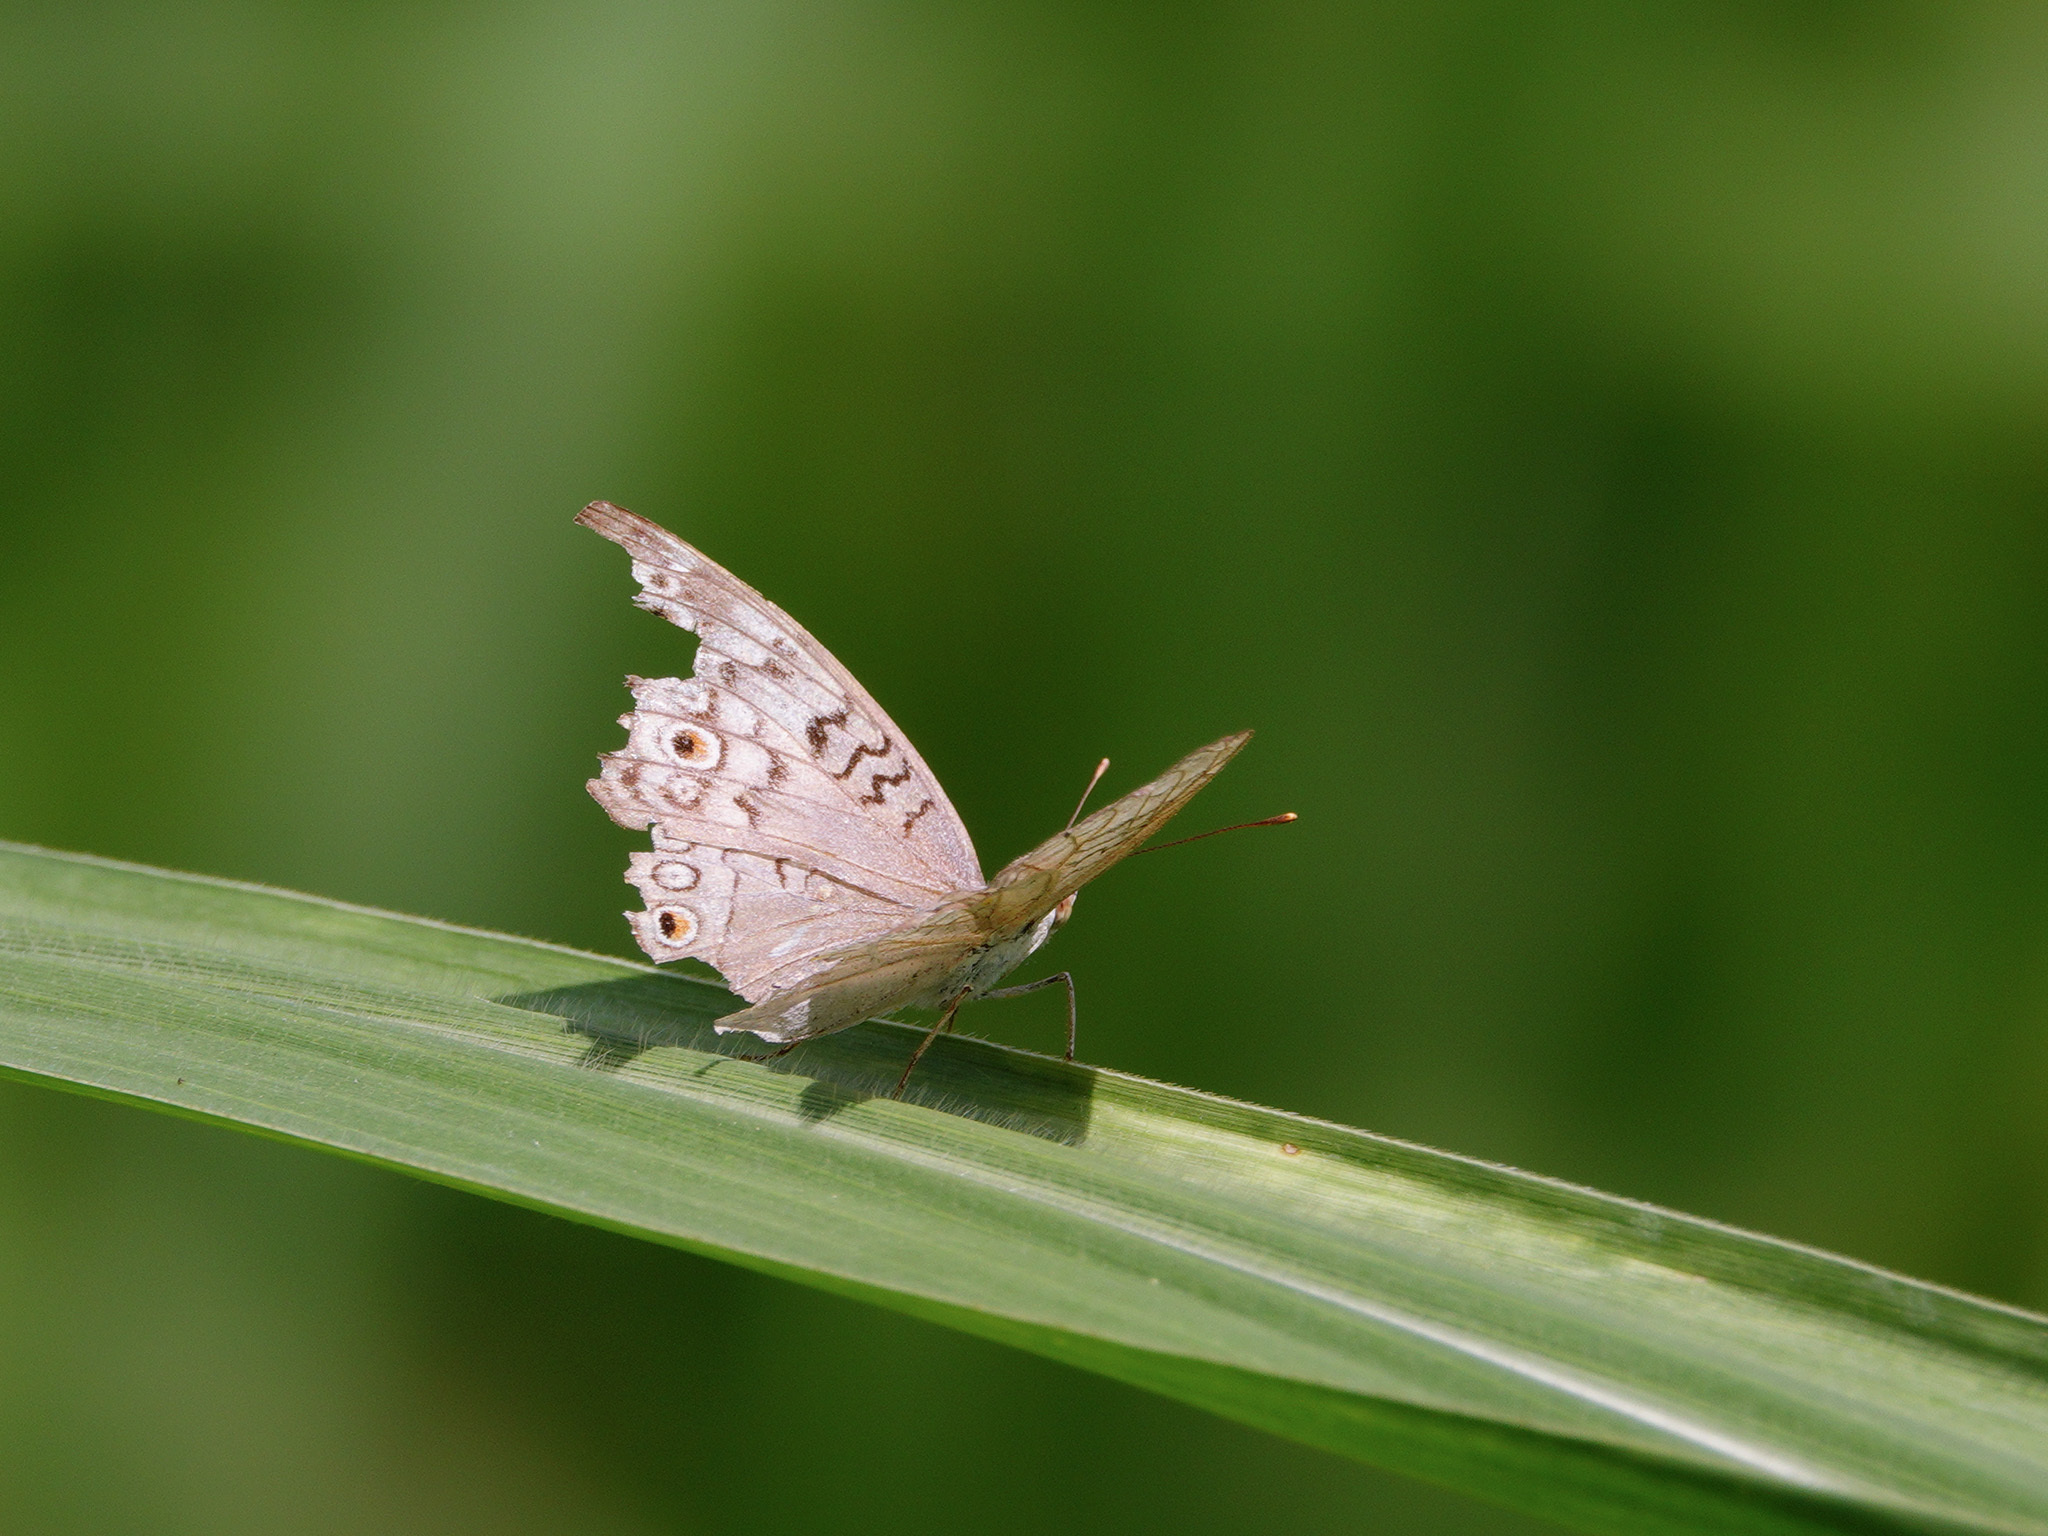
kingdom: Animalia
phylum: Arthropoda
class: Insecta
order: Lepidoptera
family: Nymphalidae
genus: Junonia
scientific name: Junonia atlites
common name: Grey pansy
